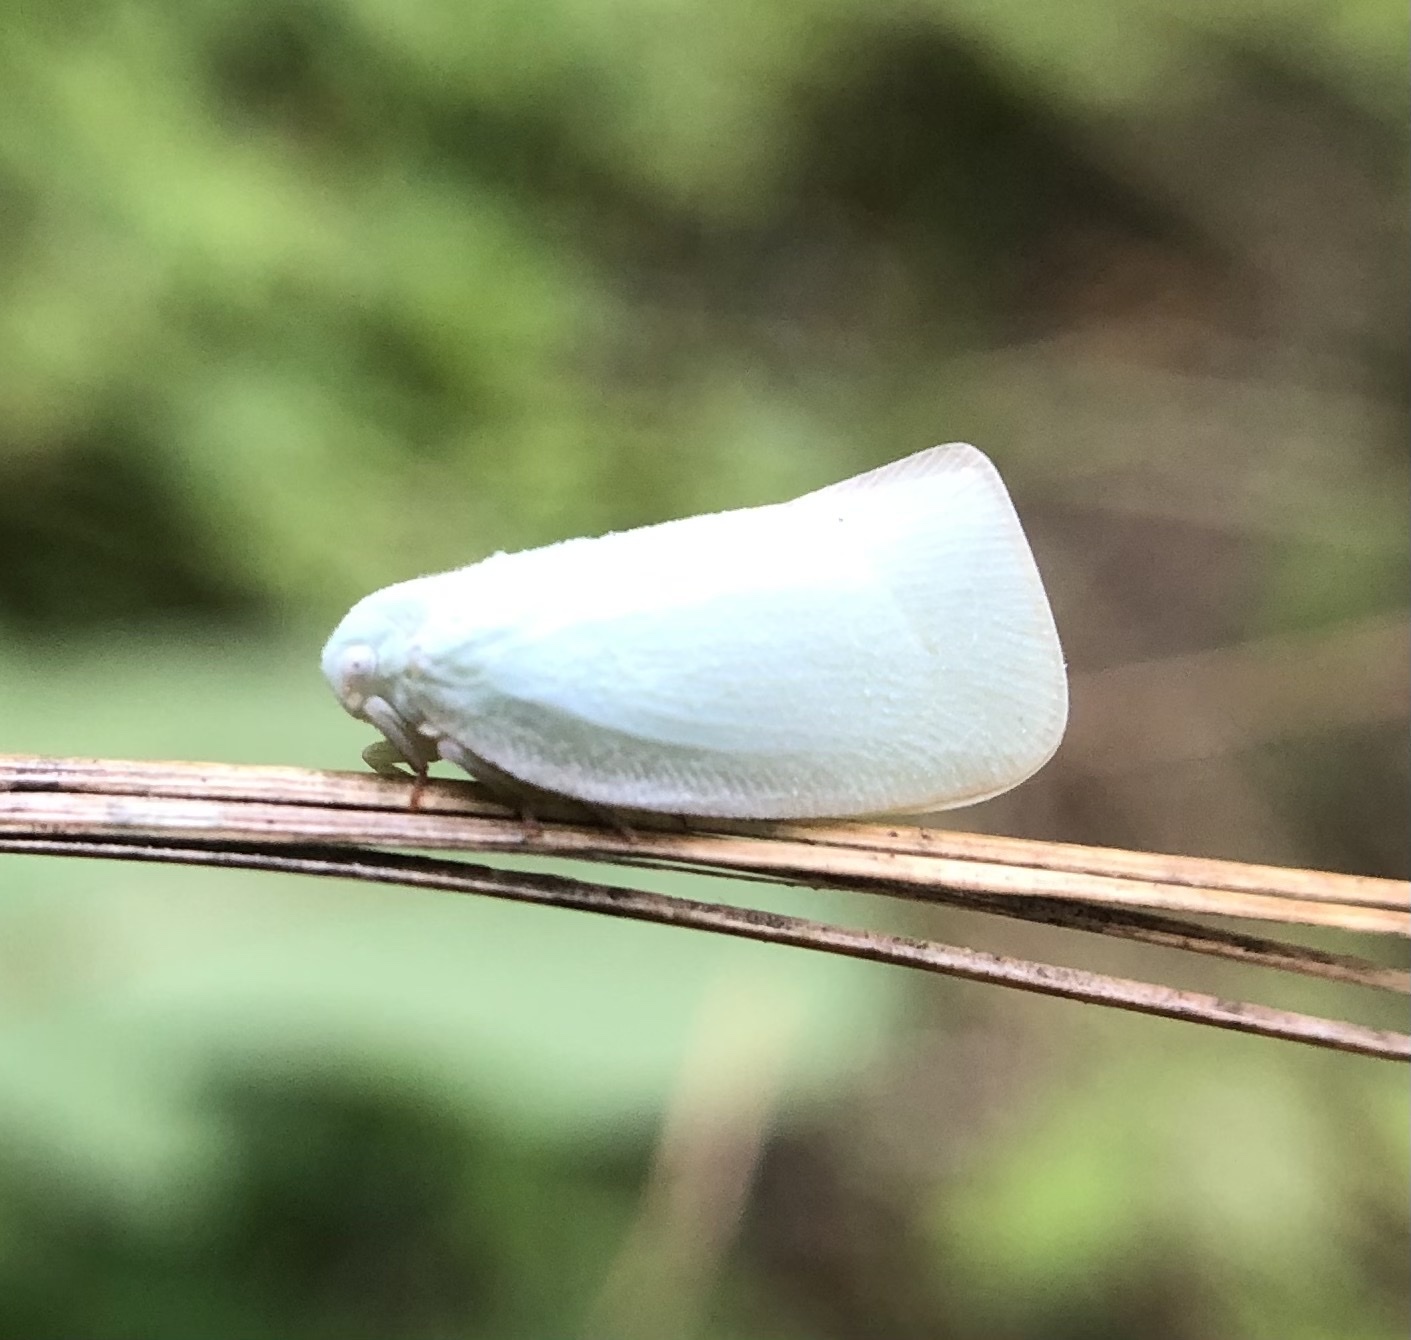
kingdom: Animalia
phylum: Arthropoda
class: Insecta
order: Hemiptera
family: Flatidae
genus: Flatormenis
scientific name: Flatormenis proxima
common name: Northern flatid planthopper
